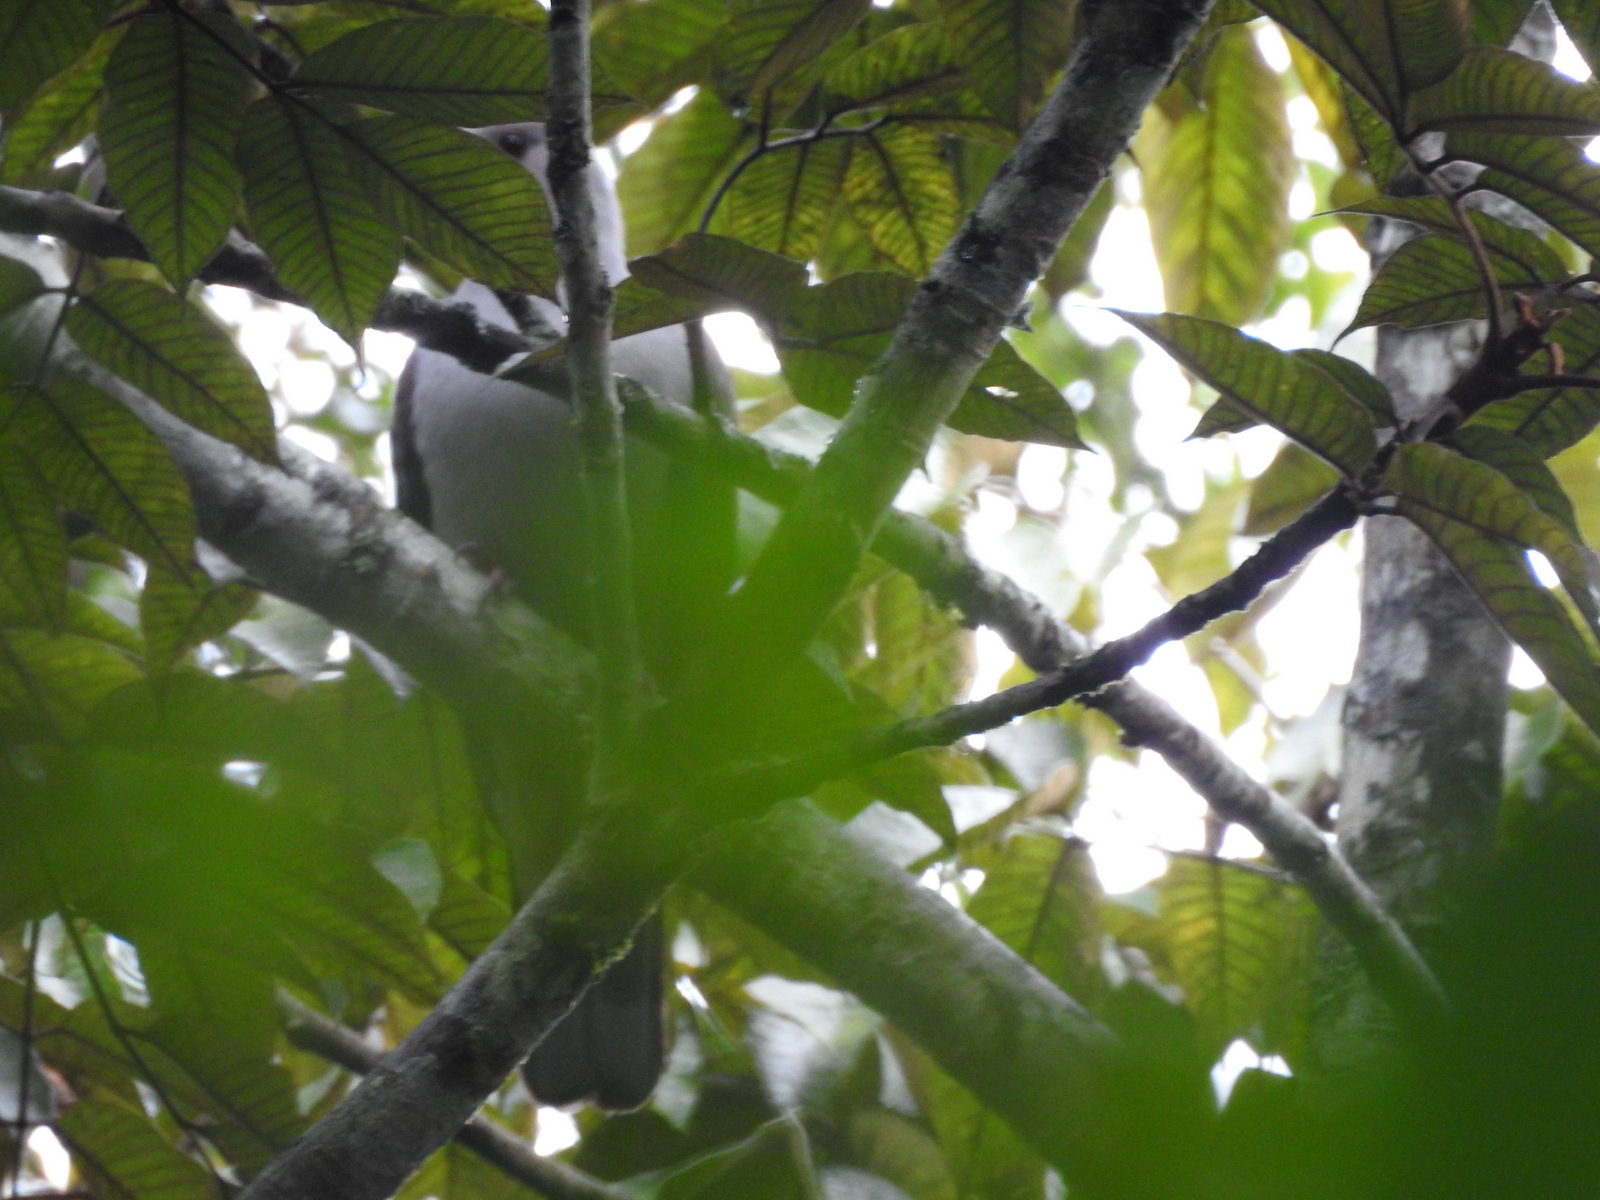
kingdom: Animalia
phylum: Chordata
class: Aves
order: Columbiformes
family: Columbidae
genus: Columba
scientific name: Columba elphinstonii
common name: Nilgiri wood pigeon
